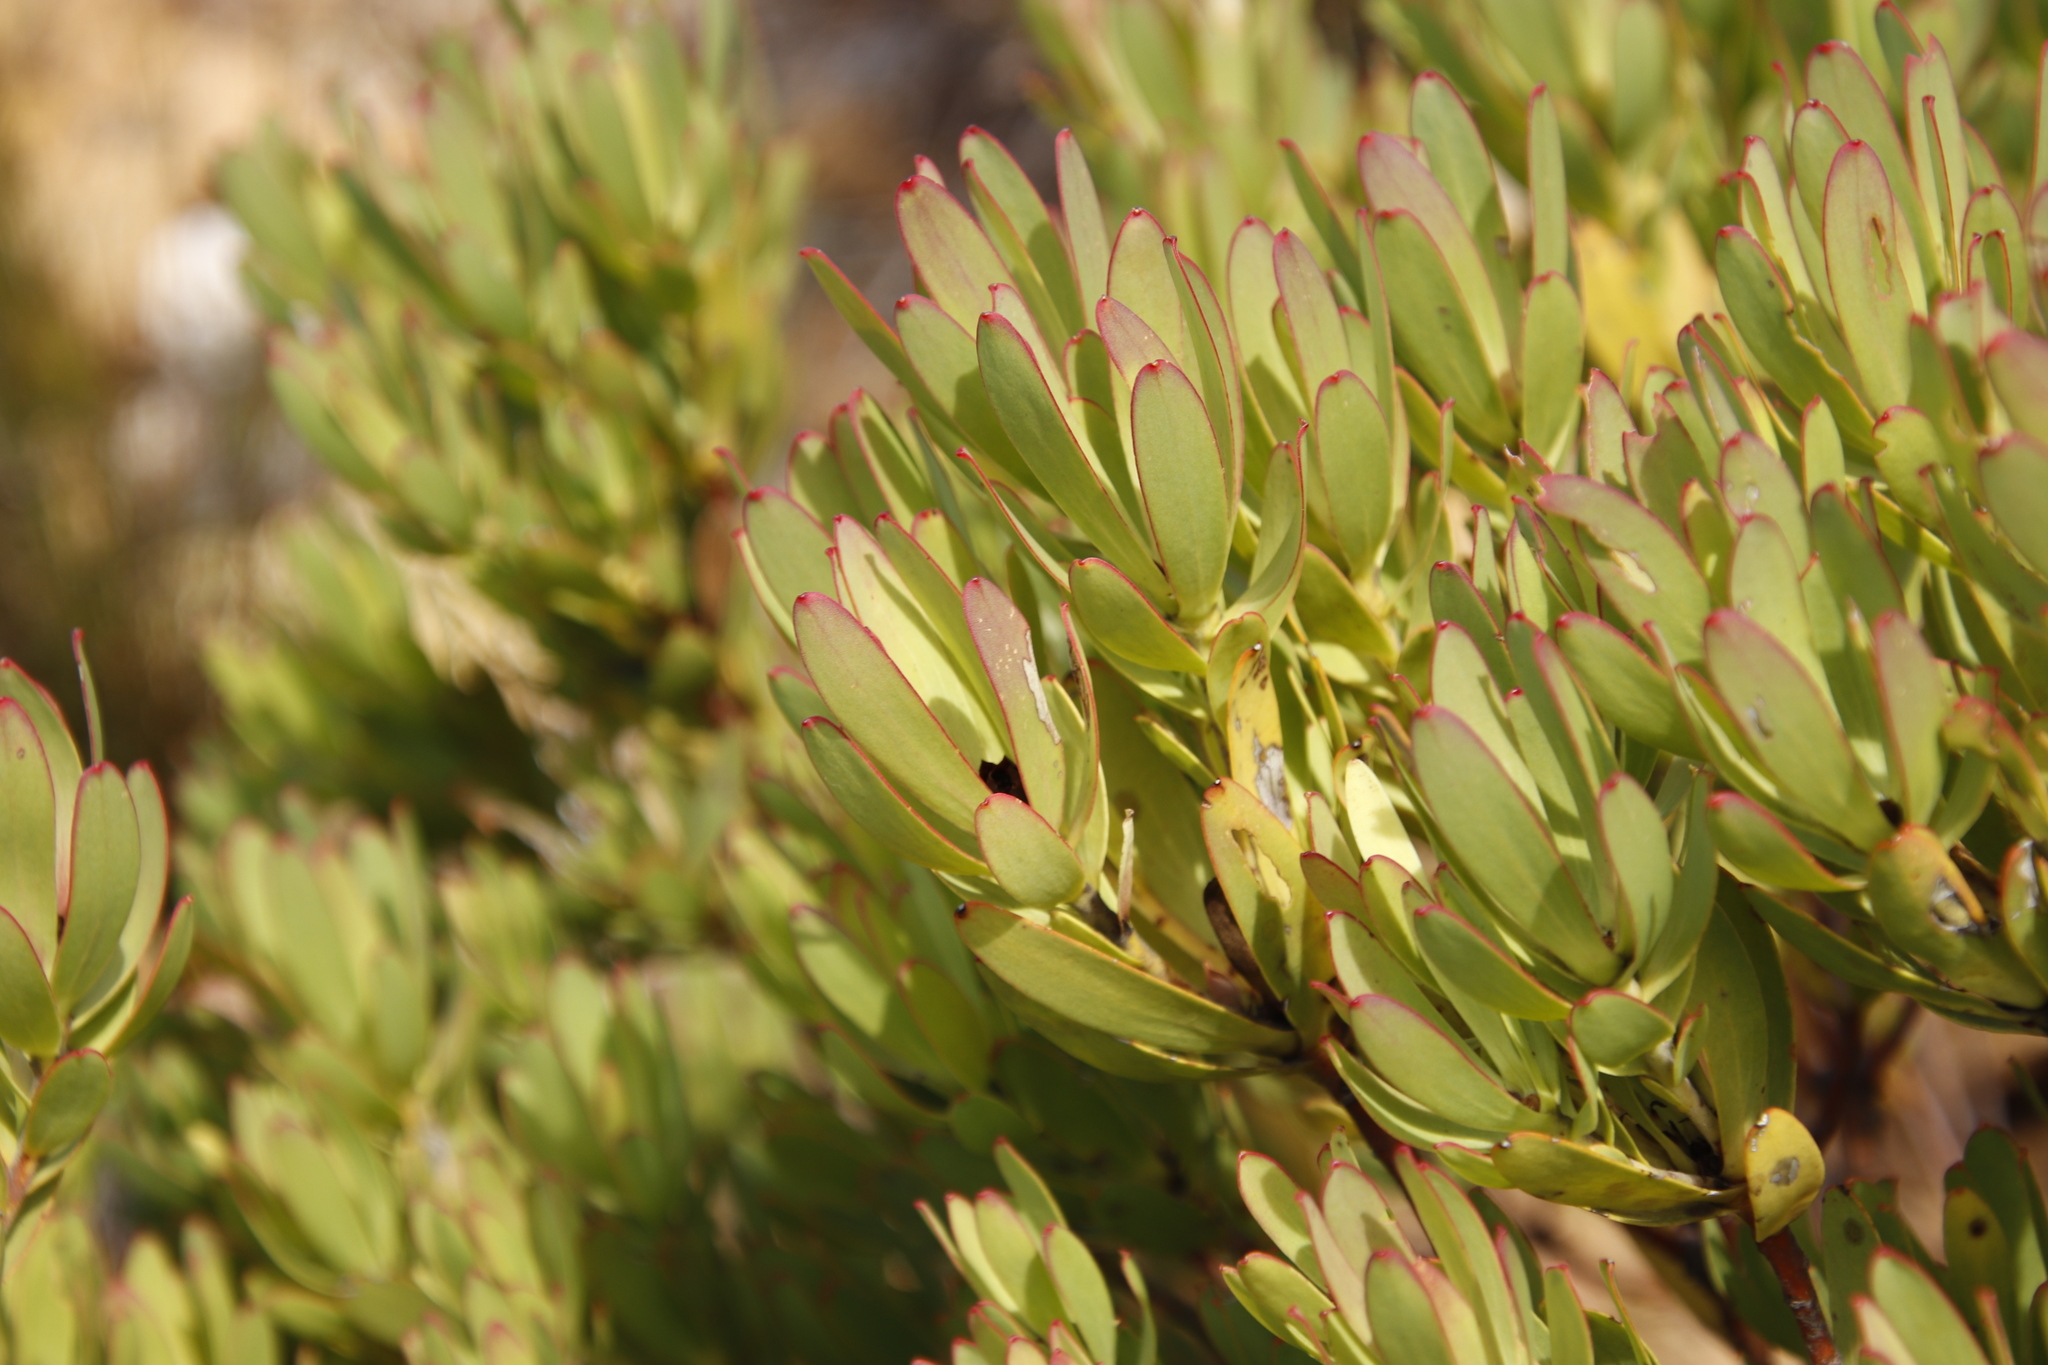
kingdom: Plantae
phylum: Tracheophyta
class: Magnoliopsida
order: Proteales
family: Proteaceae
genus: Leucadendron
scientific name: Leucadendron sessile
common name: Western sunbush
